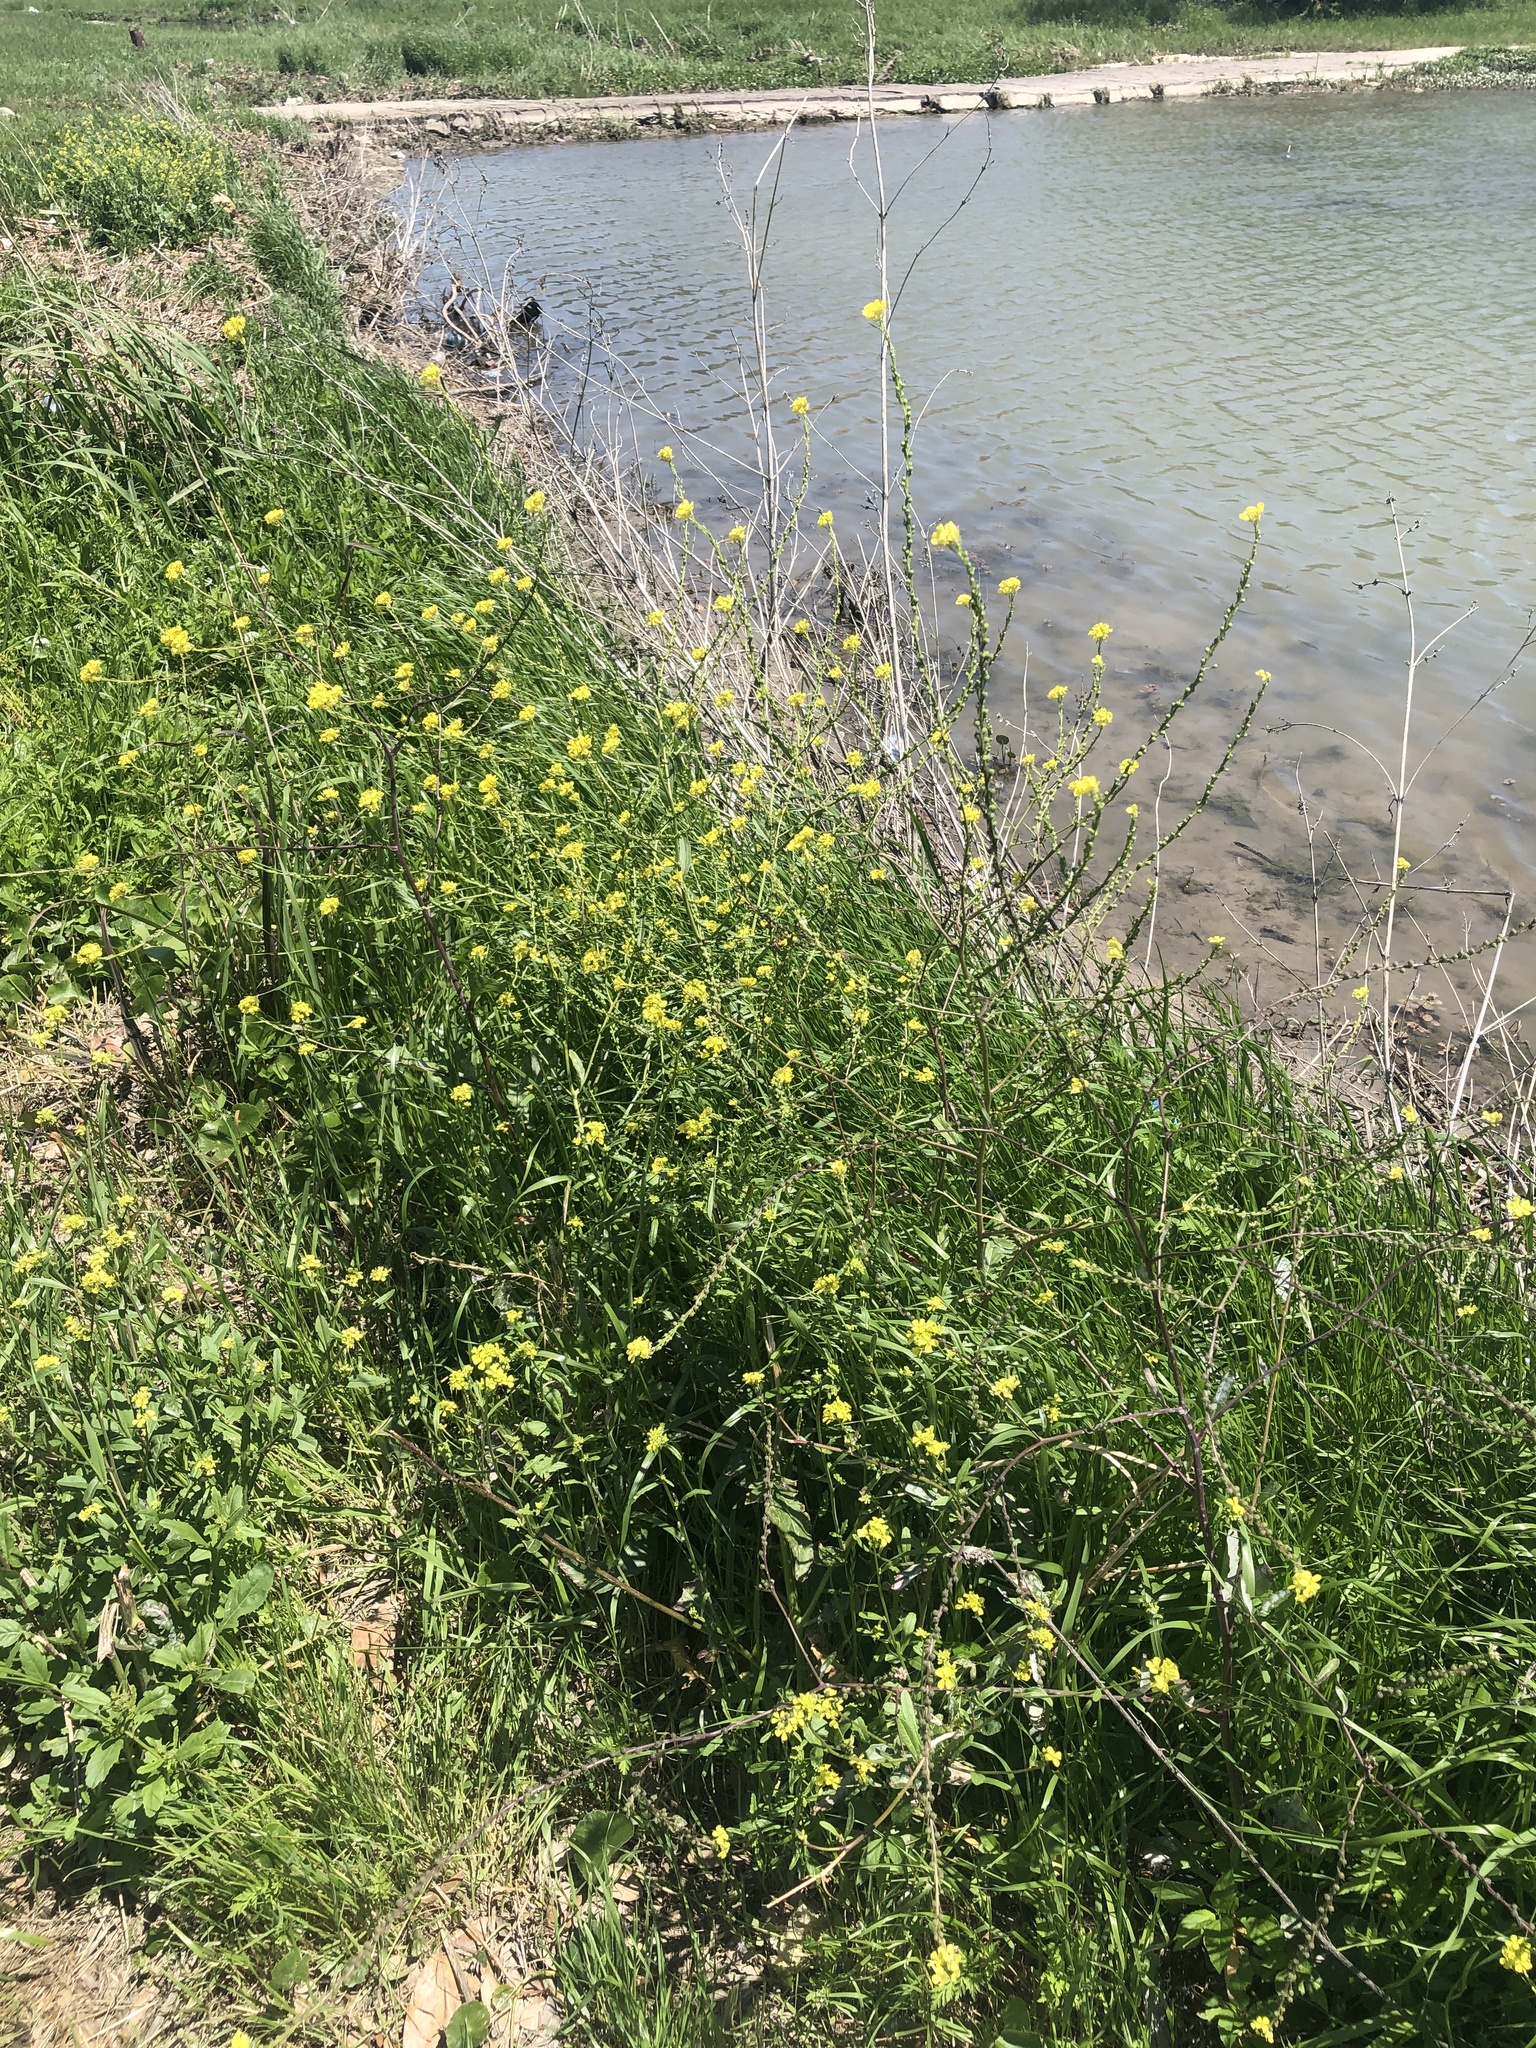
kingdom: Plantae
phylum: Tracheophyta
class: Magnoliopsida
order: Brassicales
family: Brassicaceae
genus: Rapistrum
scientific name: Rapistrum rugosum
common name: Annual bastardcabbage
